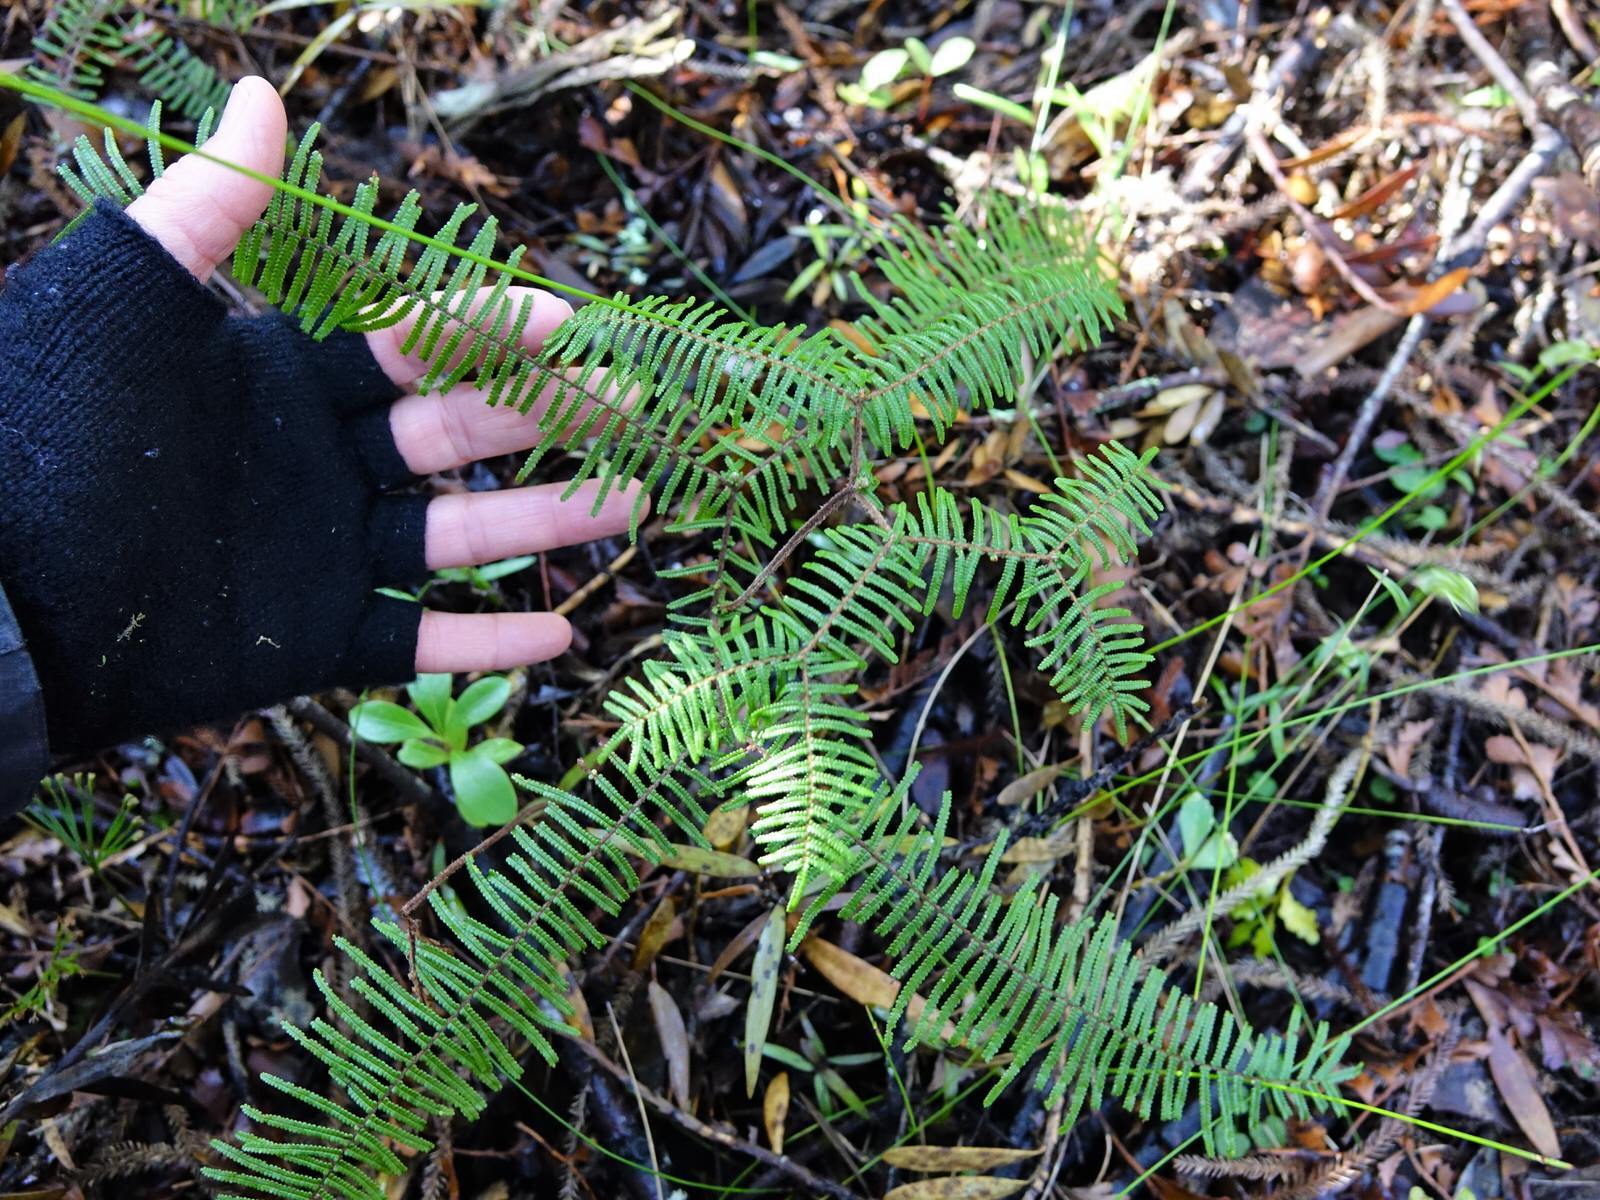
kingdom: Plantae
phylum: Tracheophyta
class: Polypodiopsida
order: Gleicheniales
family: Gleicheniaceae
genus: Gleichenia
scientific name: Gleichenia punctulata
